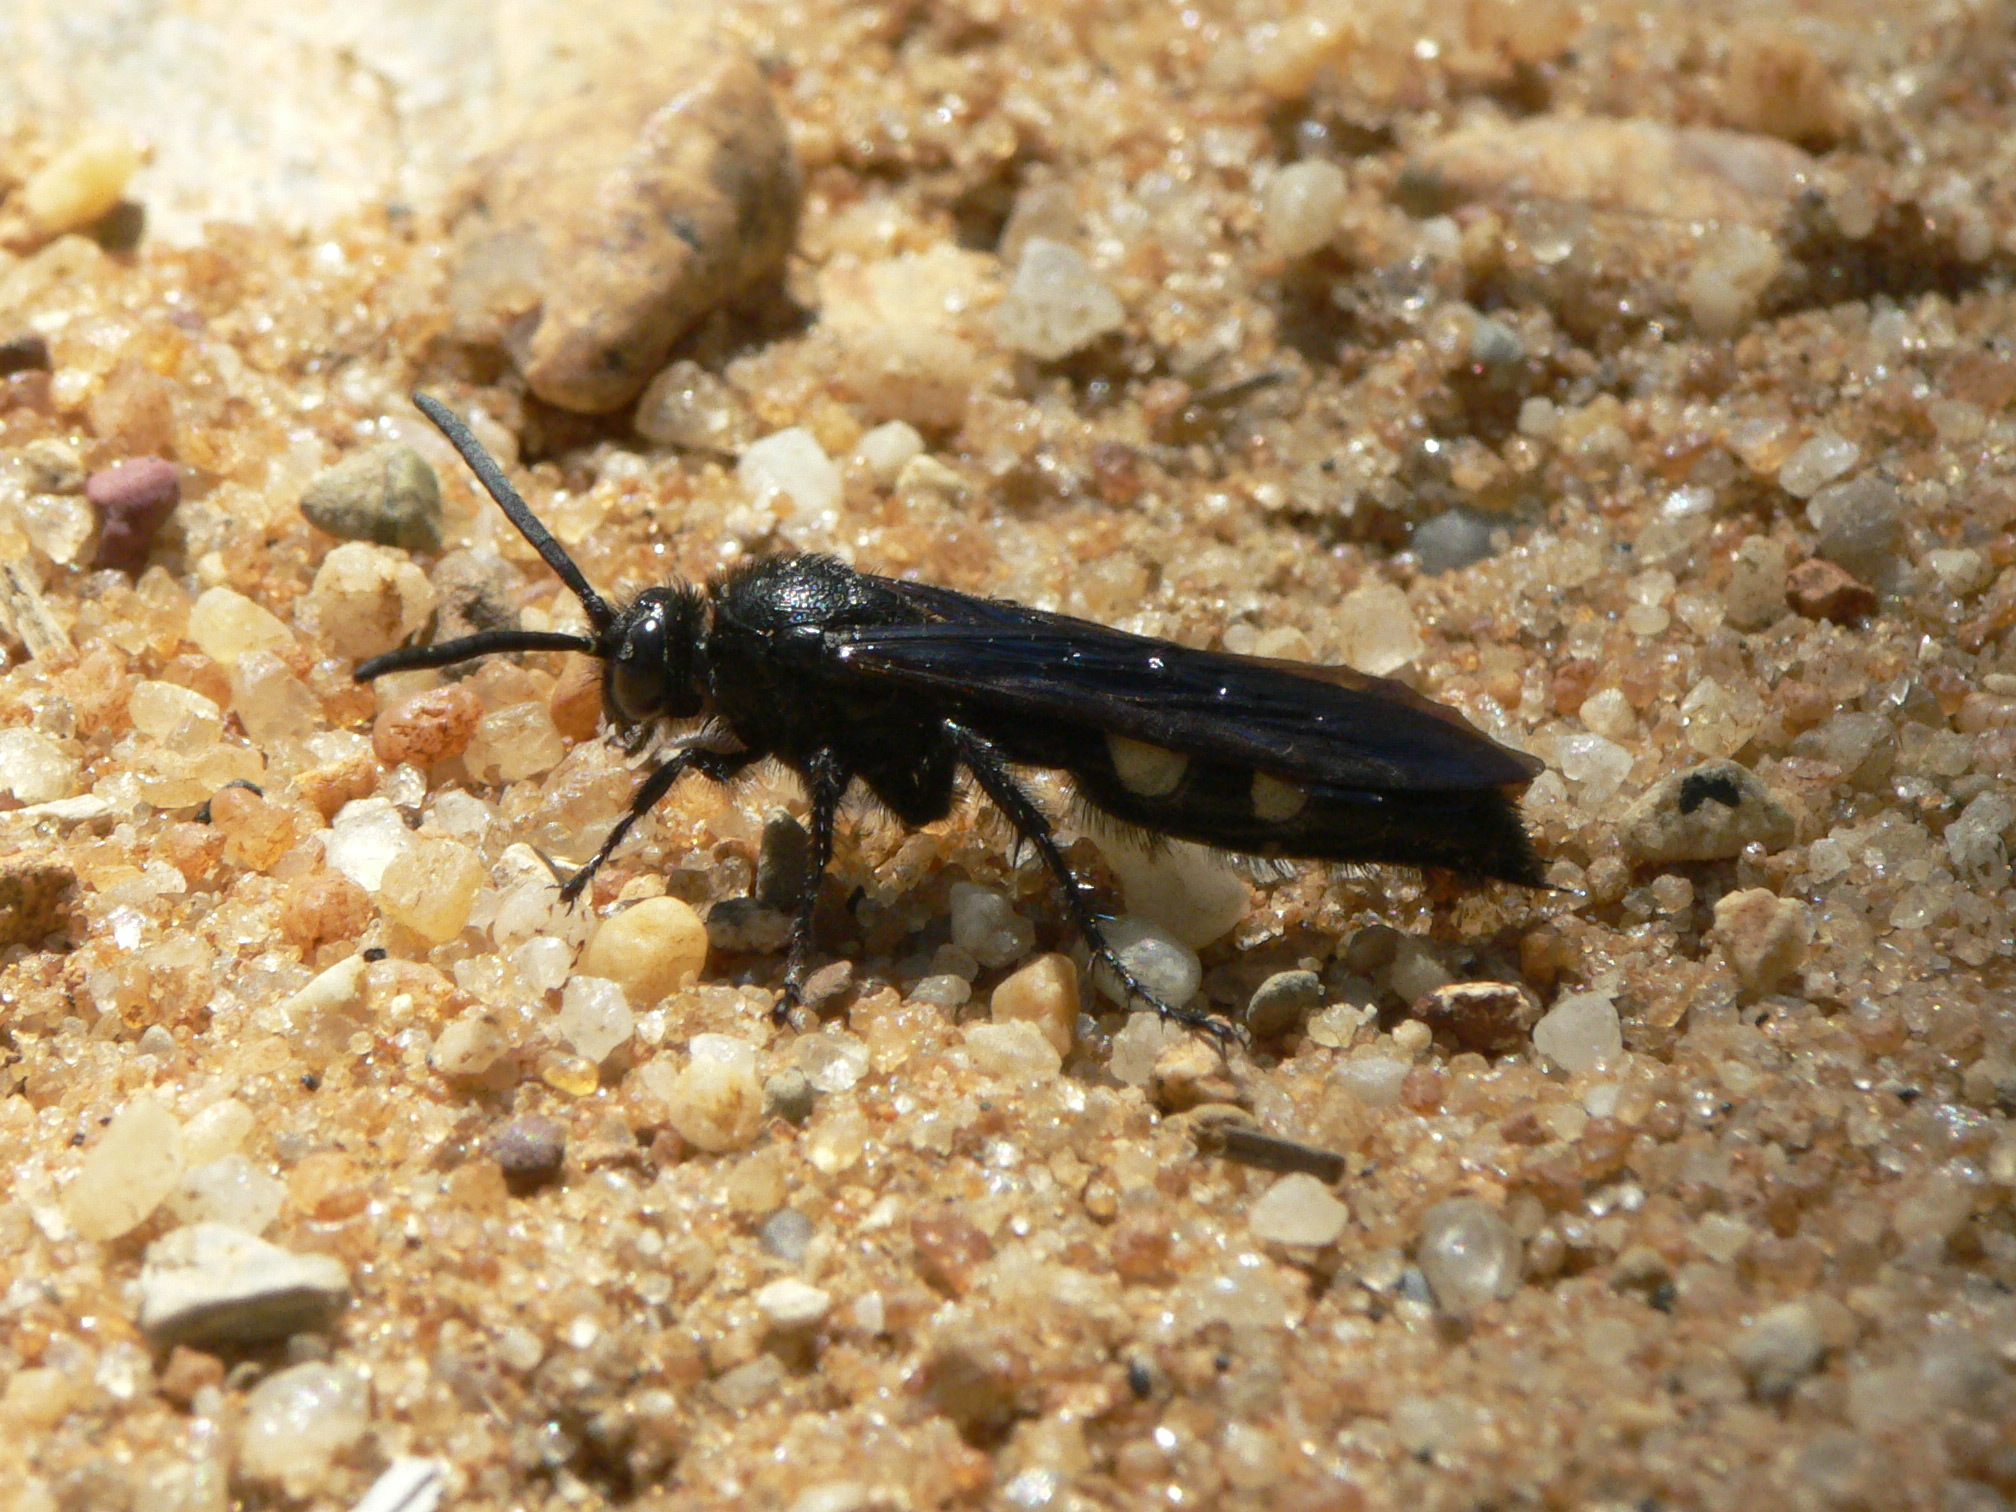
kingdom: Animalia
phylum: Arthropoda
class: Insecta
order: Hymenoptera
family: Scoliidae
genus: Scolia
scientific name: Scolia bicincta
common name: Double-banded scoliid wasp
